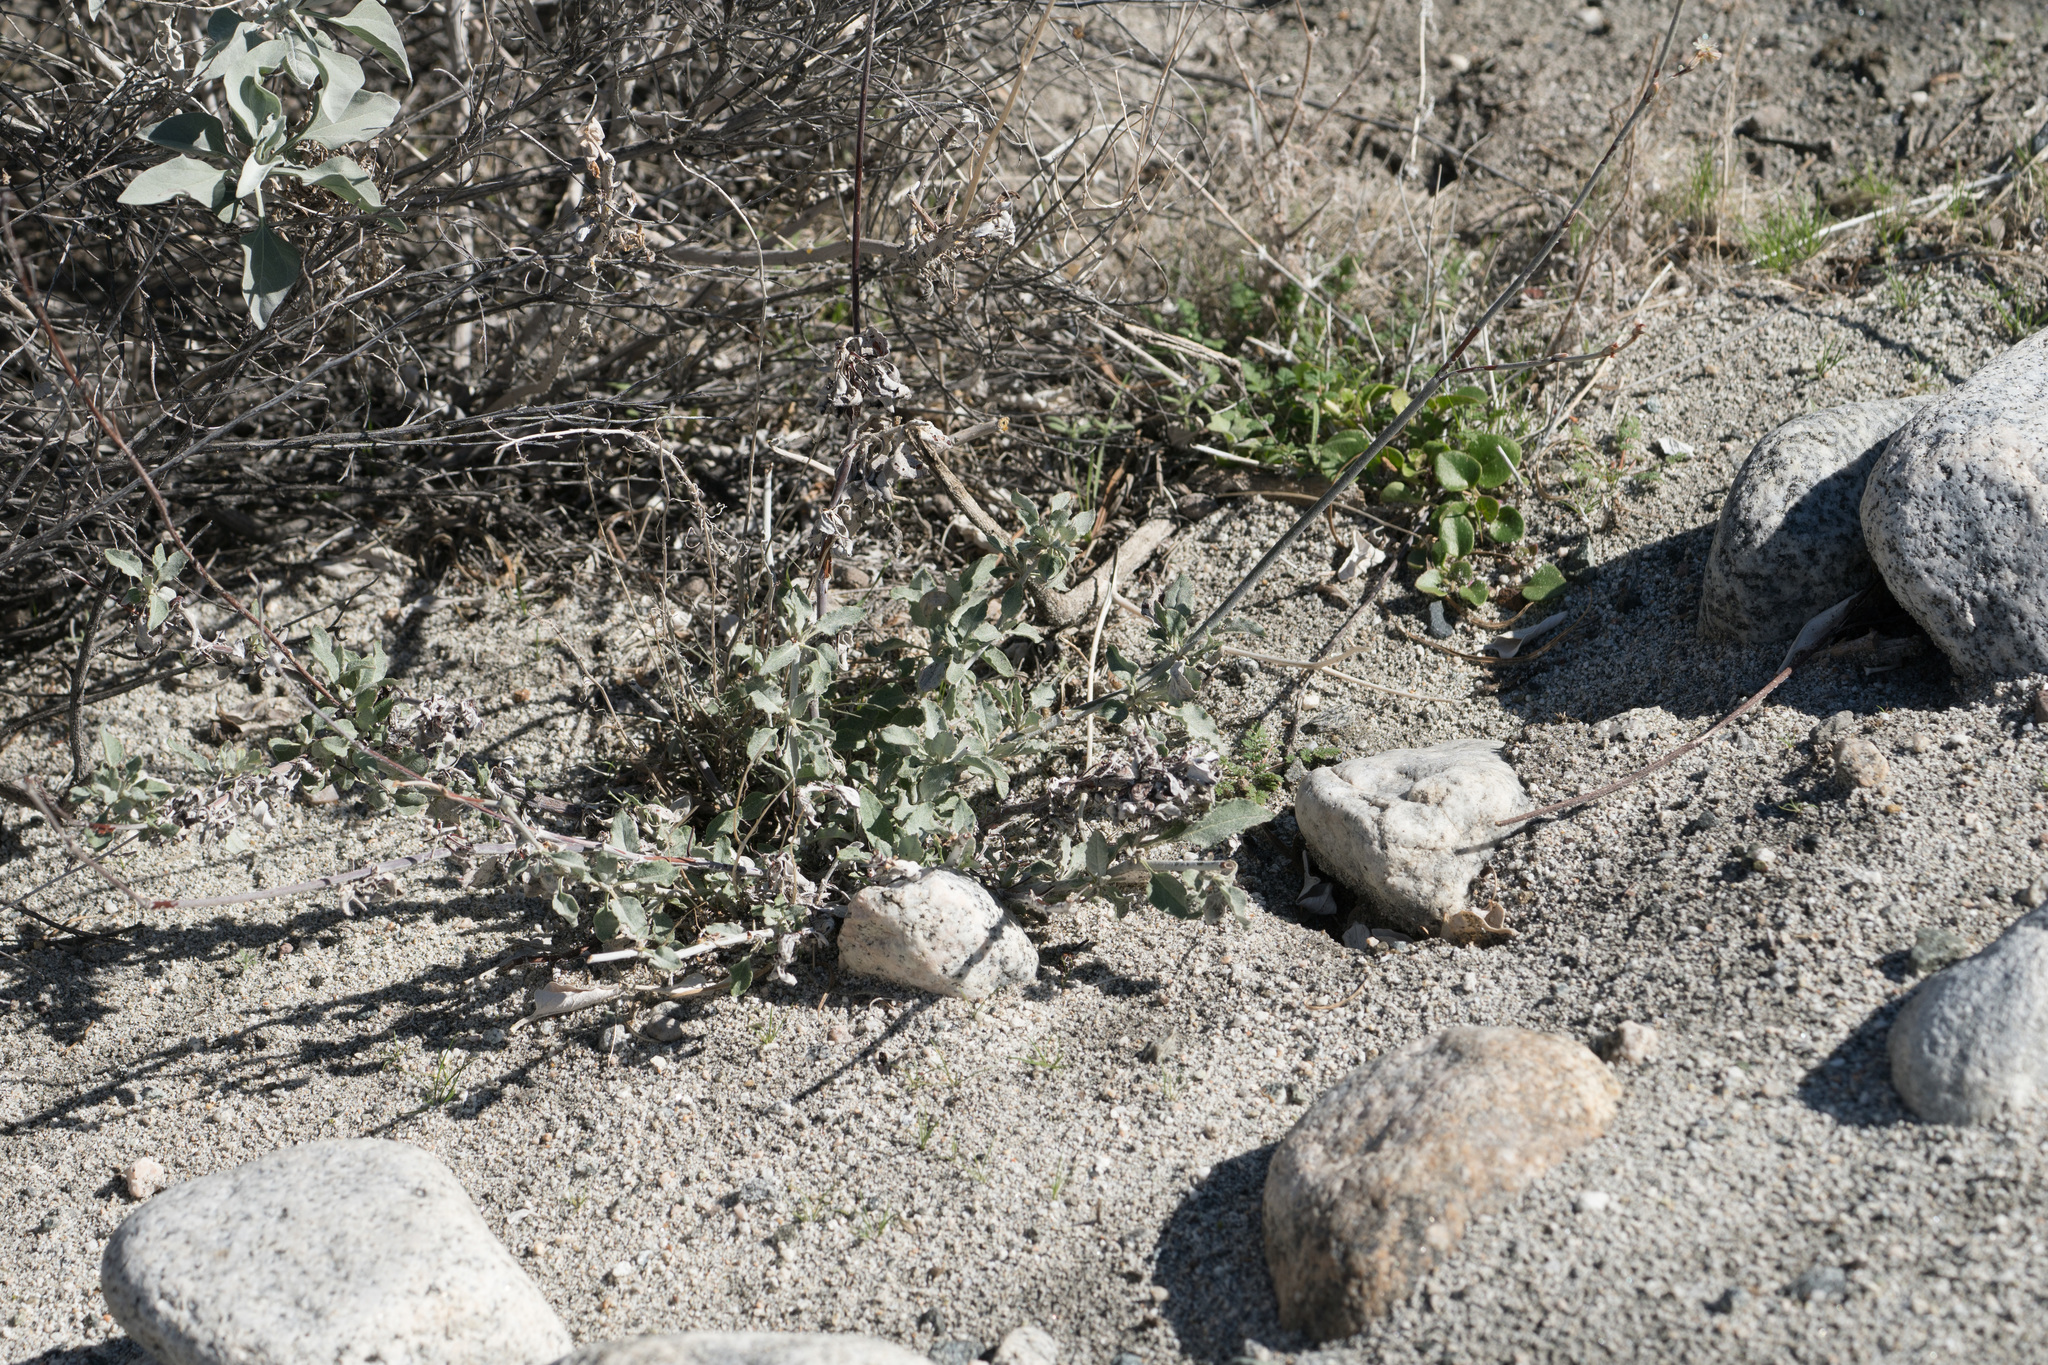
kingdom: Plantae
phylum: Tracheophyta
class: Magnoliopsida
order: Caryophyllales
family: Polygonaceae
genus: Eriogonum
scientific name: Eriogonum elongatum
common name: Long-stem wild buckwheat
